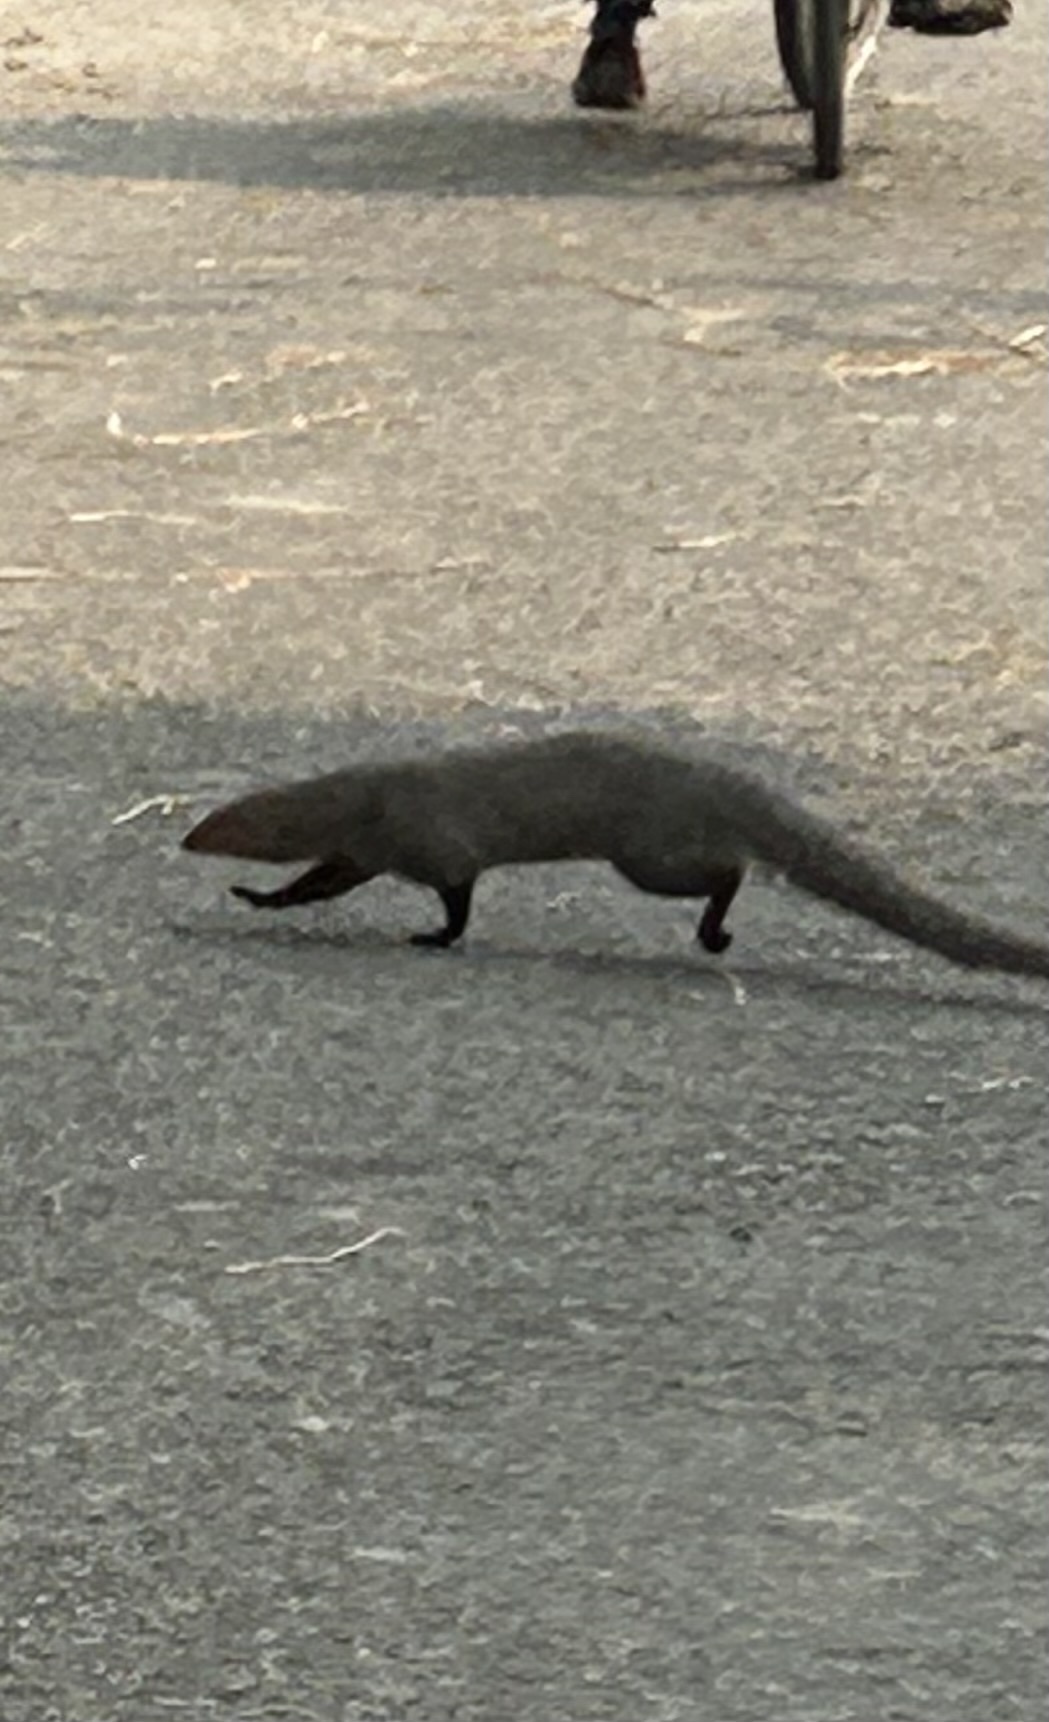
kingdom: Animalia
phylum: Chordata
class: Mammalia
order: Carnivora
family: Herpestidae
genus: Herpestes
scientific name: Herpestes edwardsi
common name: Indian gray mongoose
